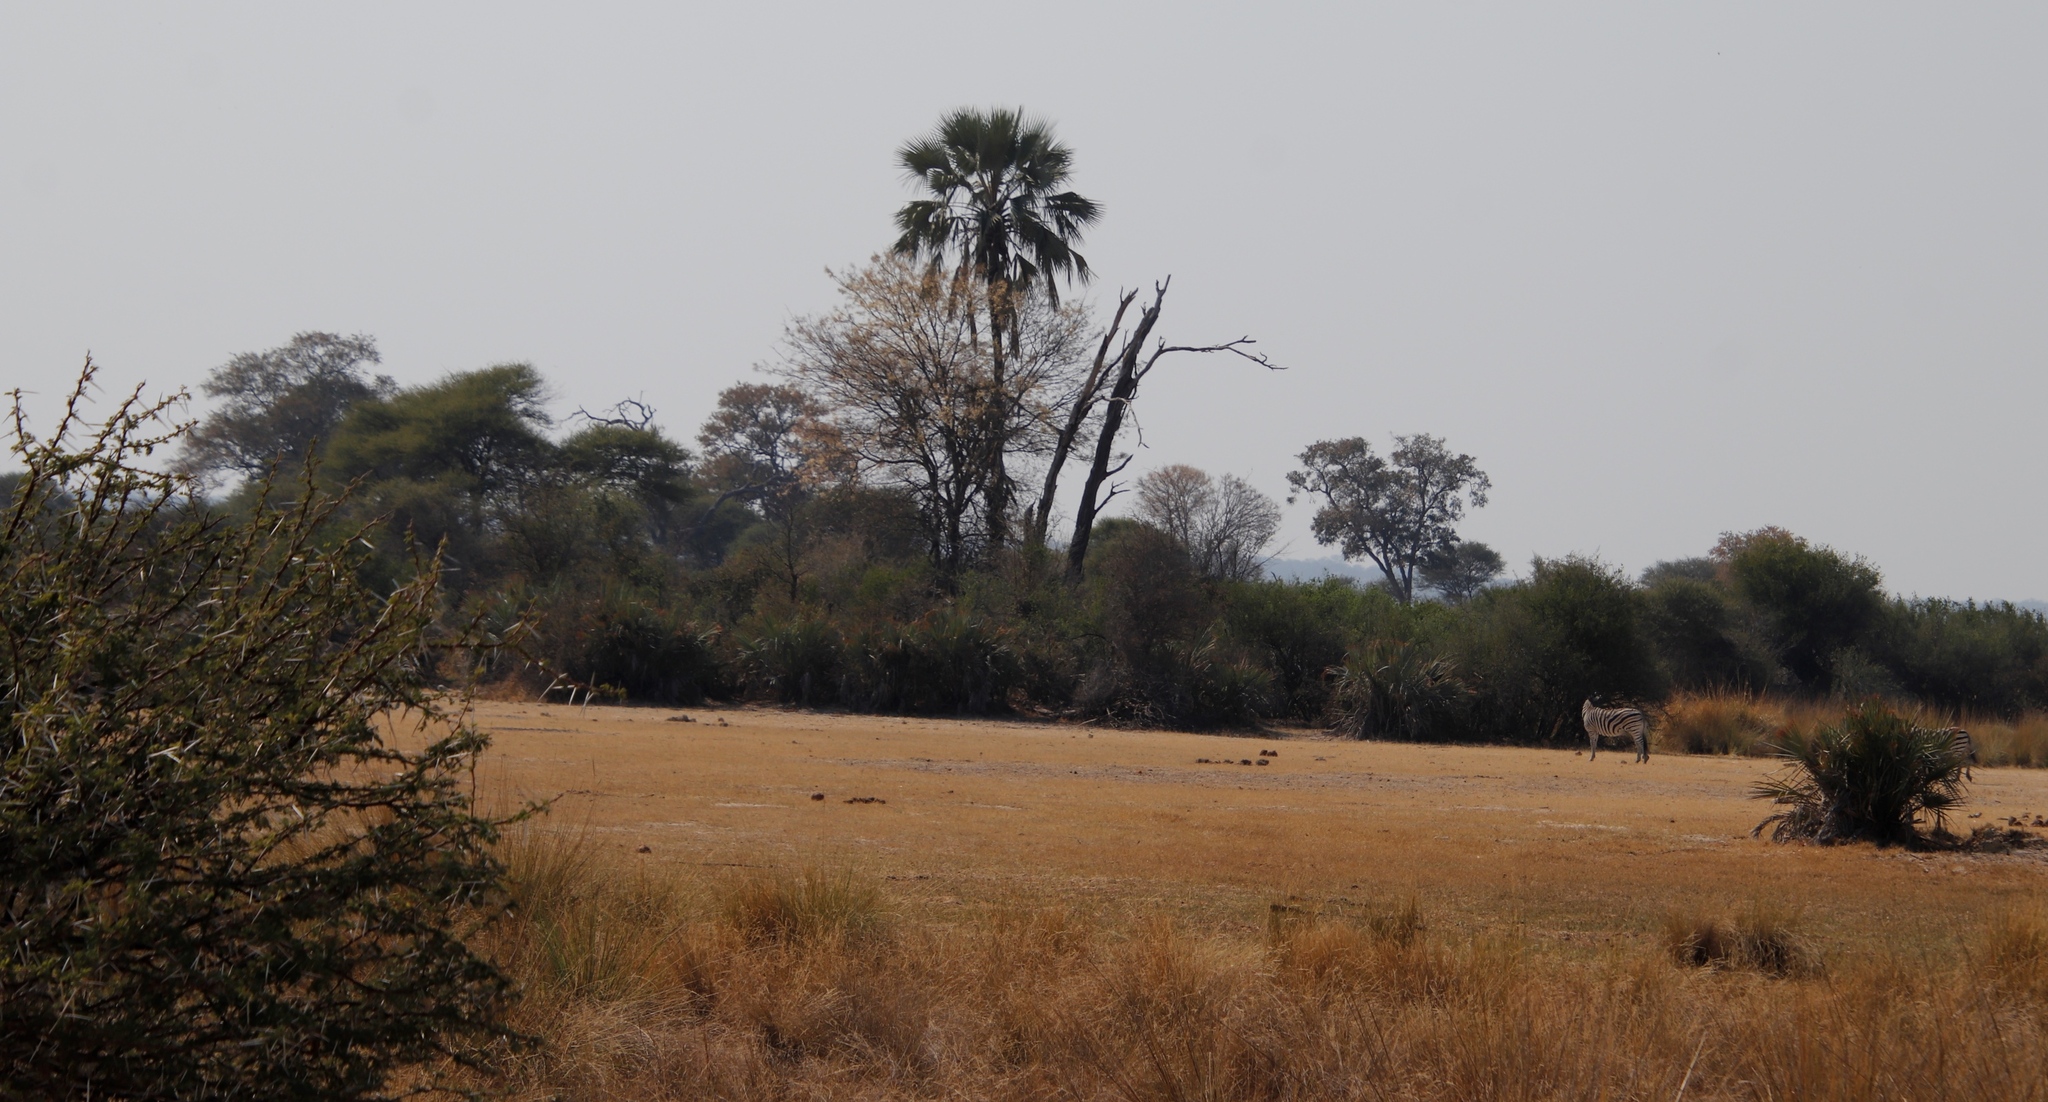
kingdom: Plantae
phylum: Tracheophyta
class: Liliopsida
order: Arecales
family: Arecaceae
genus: Hyphaene
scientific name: Hyphaene petersiana
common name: African ivory nut palm
